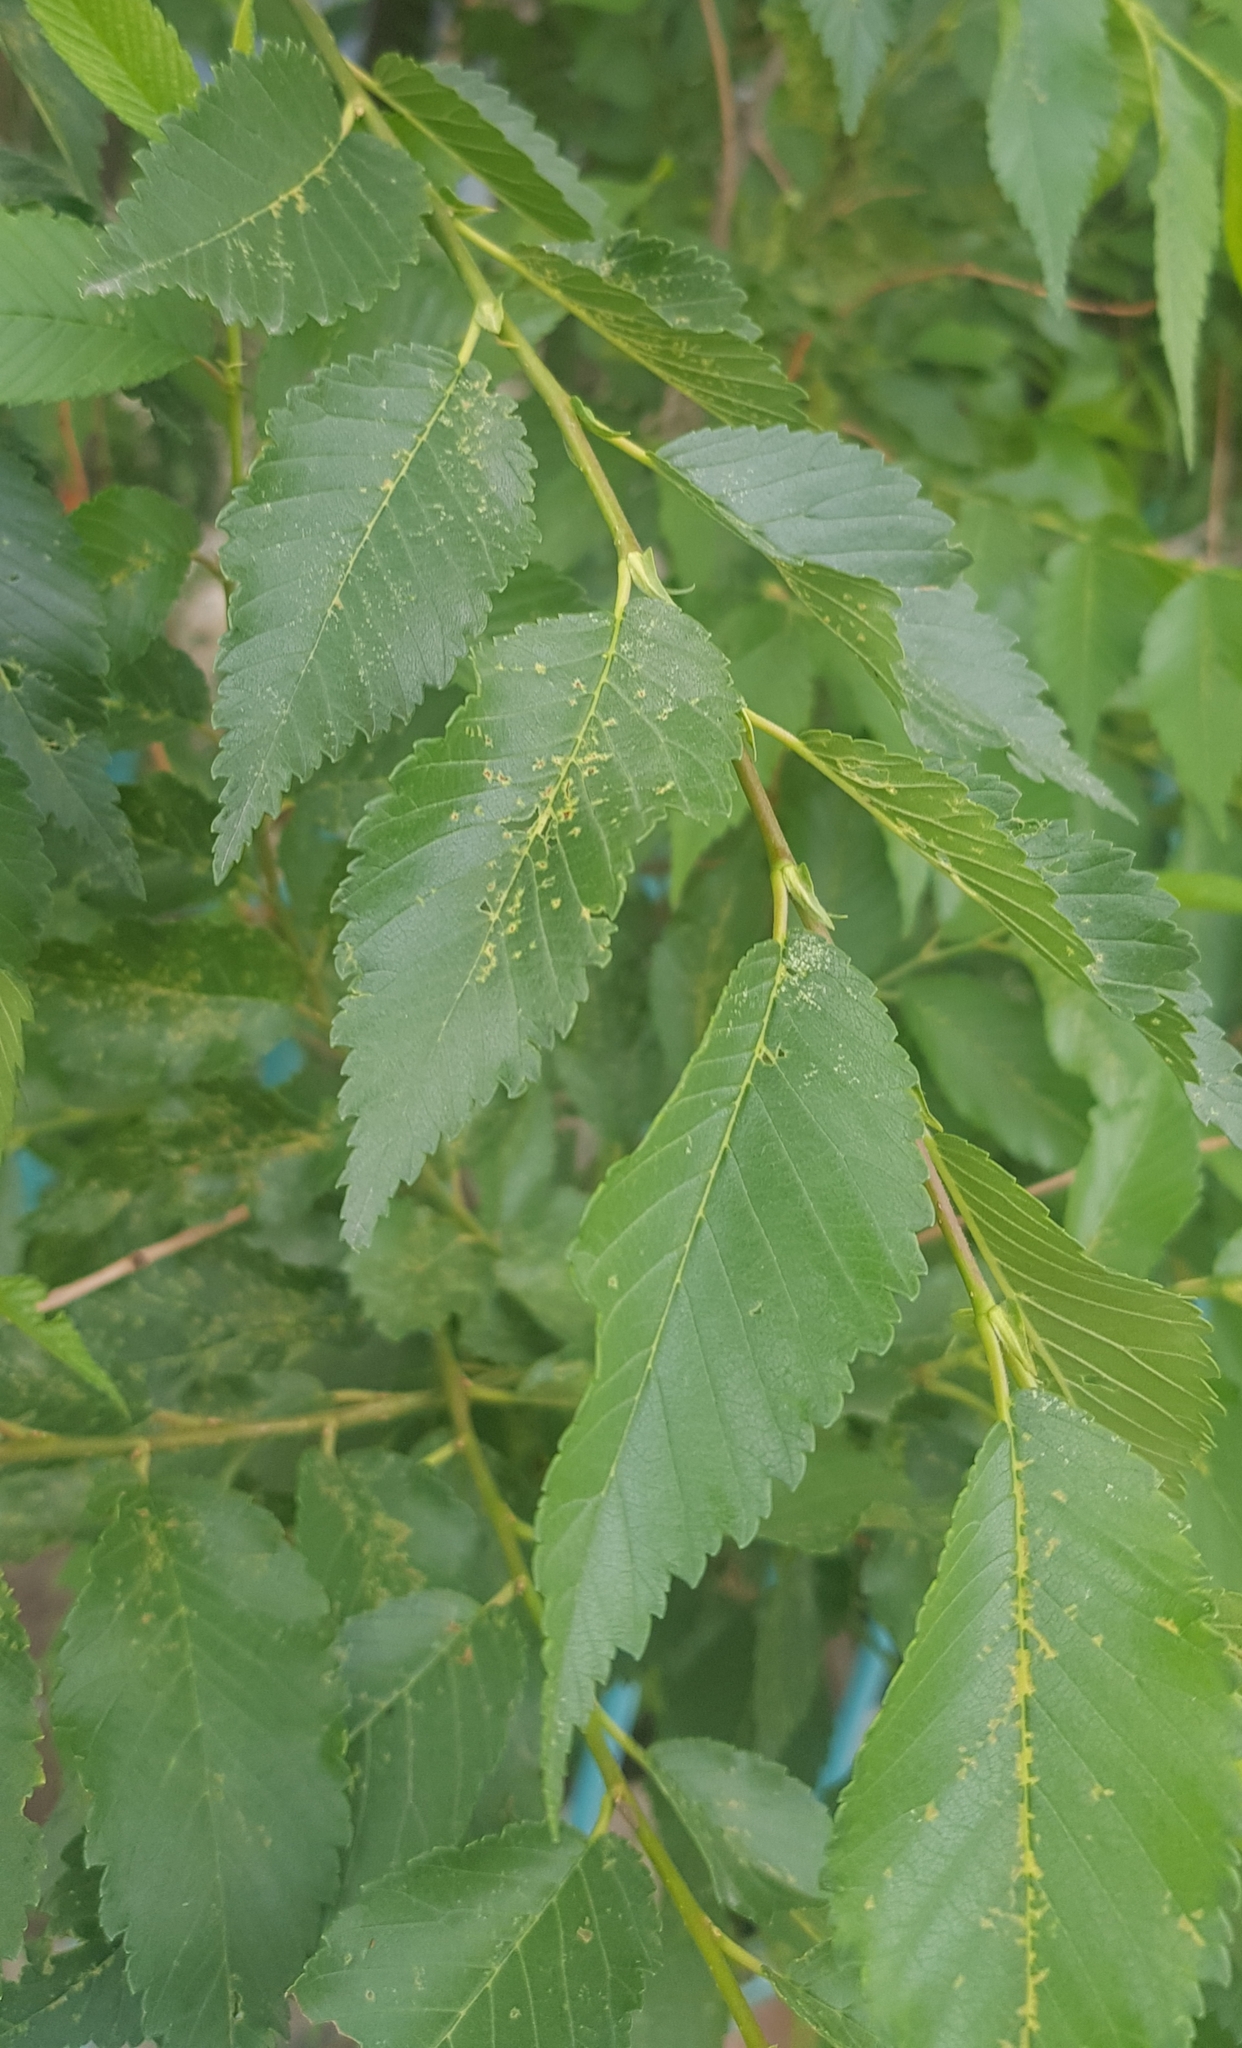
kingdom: Plantae
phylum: Tracheophyta
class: Magnoliopsida
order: Rosales
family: Ulmaceae
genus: Ulmus
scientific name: Ulmus pumila
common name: Siberian elm
